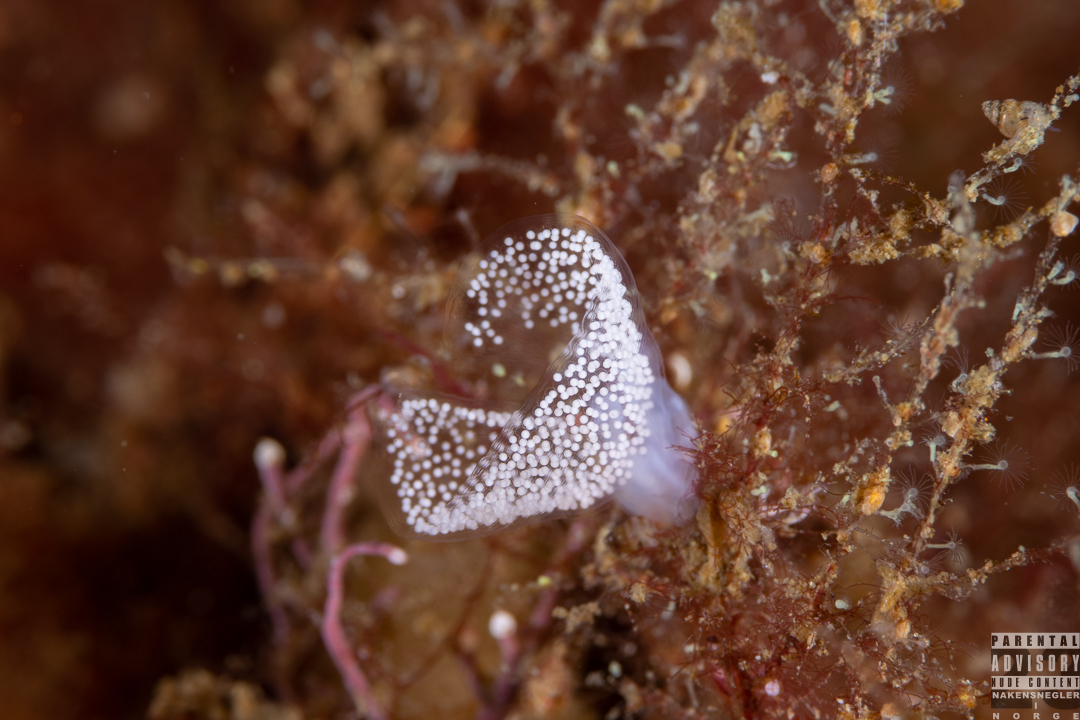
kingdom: Animalia
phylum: Mollusca
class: Gastropoda
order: Nudibranchia
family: Eubranchidae
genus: Eubranchus
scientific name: Eubranchus tricolor
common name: Painted balloon aeolis
